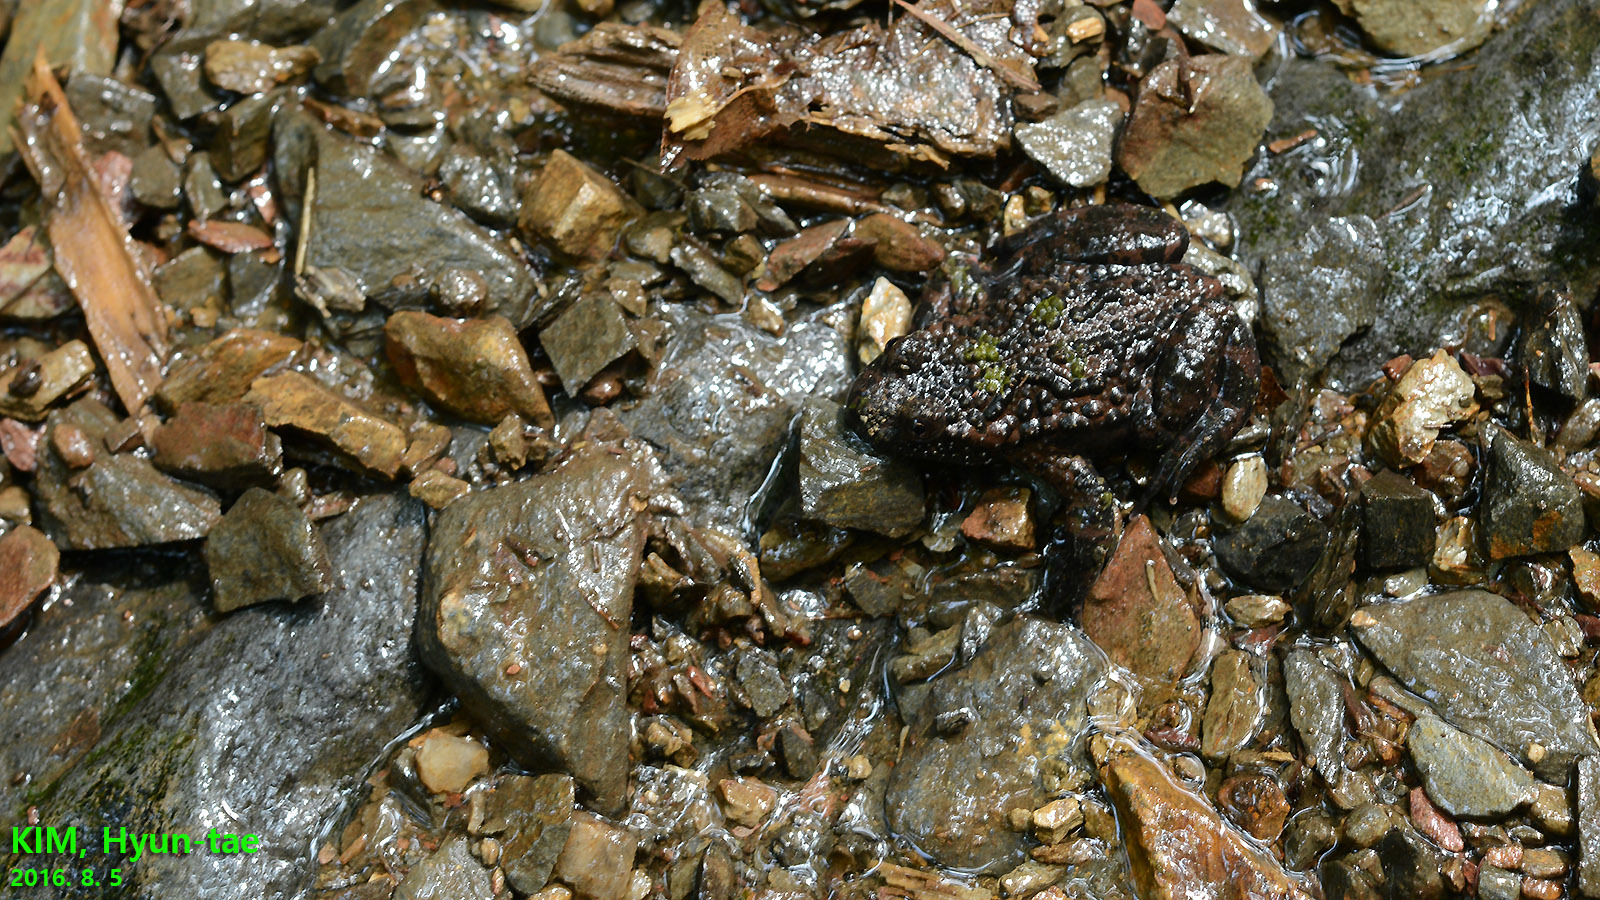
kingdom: Animalia
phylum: Chordata
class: Amphibia
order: Anura
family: Bombinatoridae
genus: Bombina
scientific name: Bombina orientalis
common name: Oriental firebelly toad
